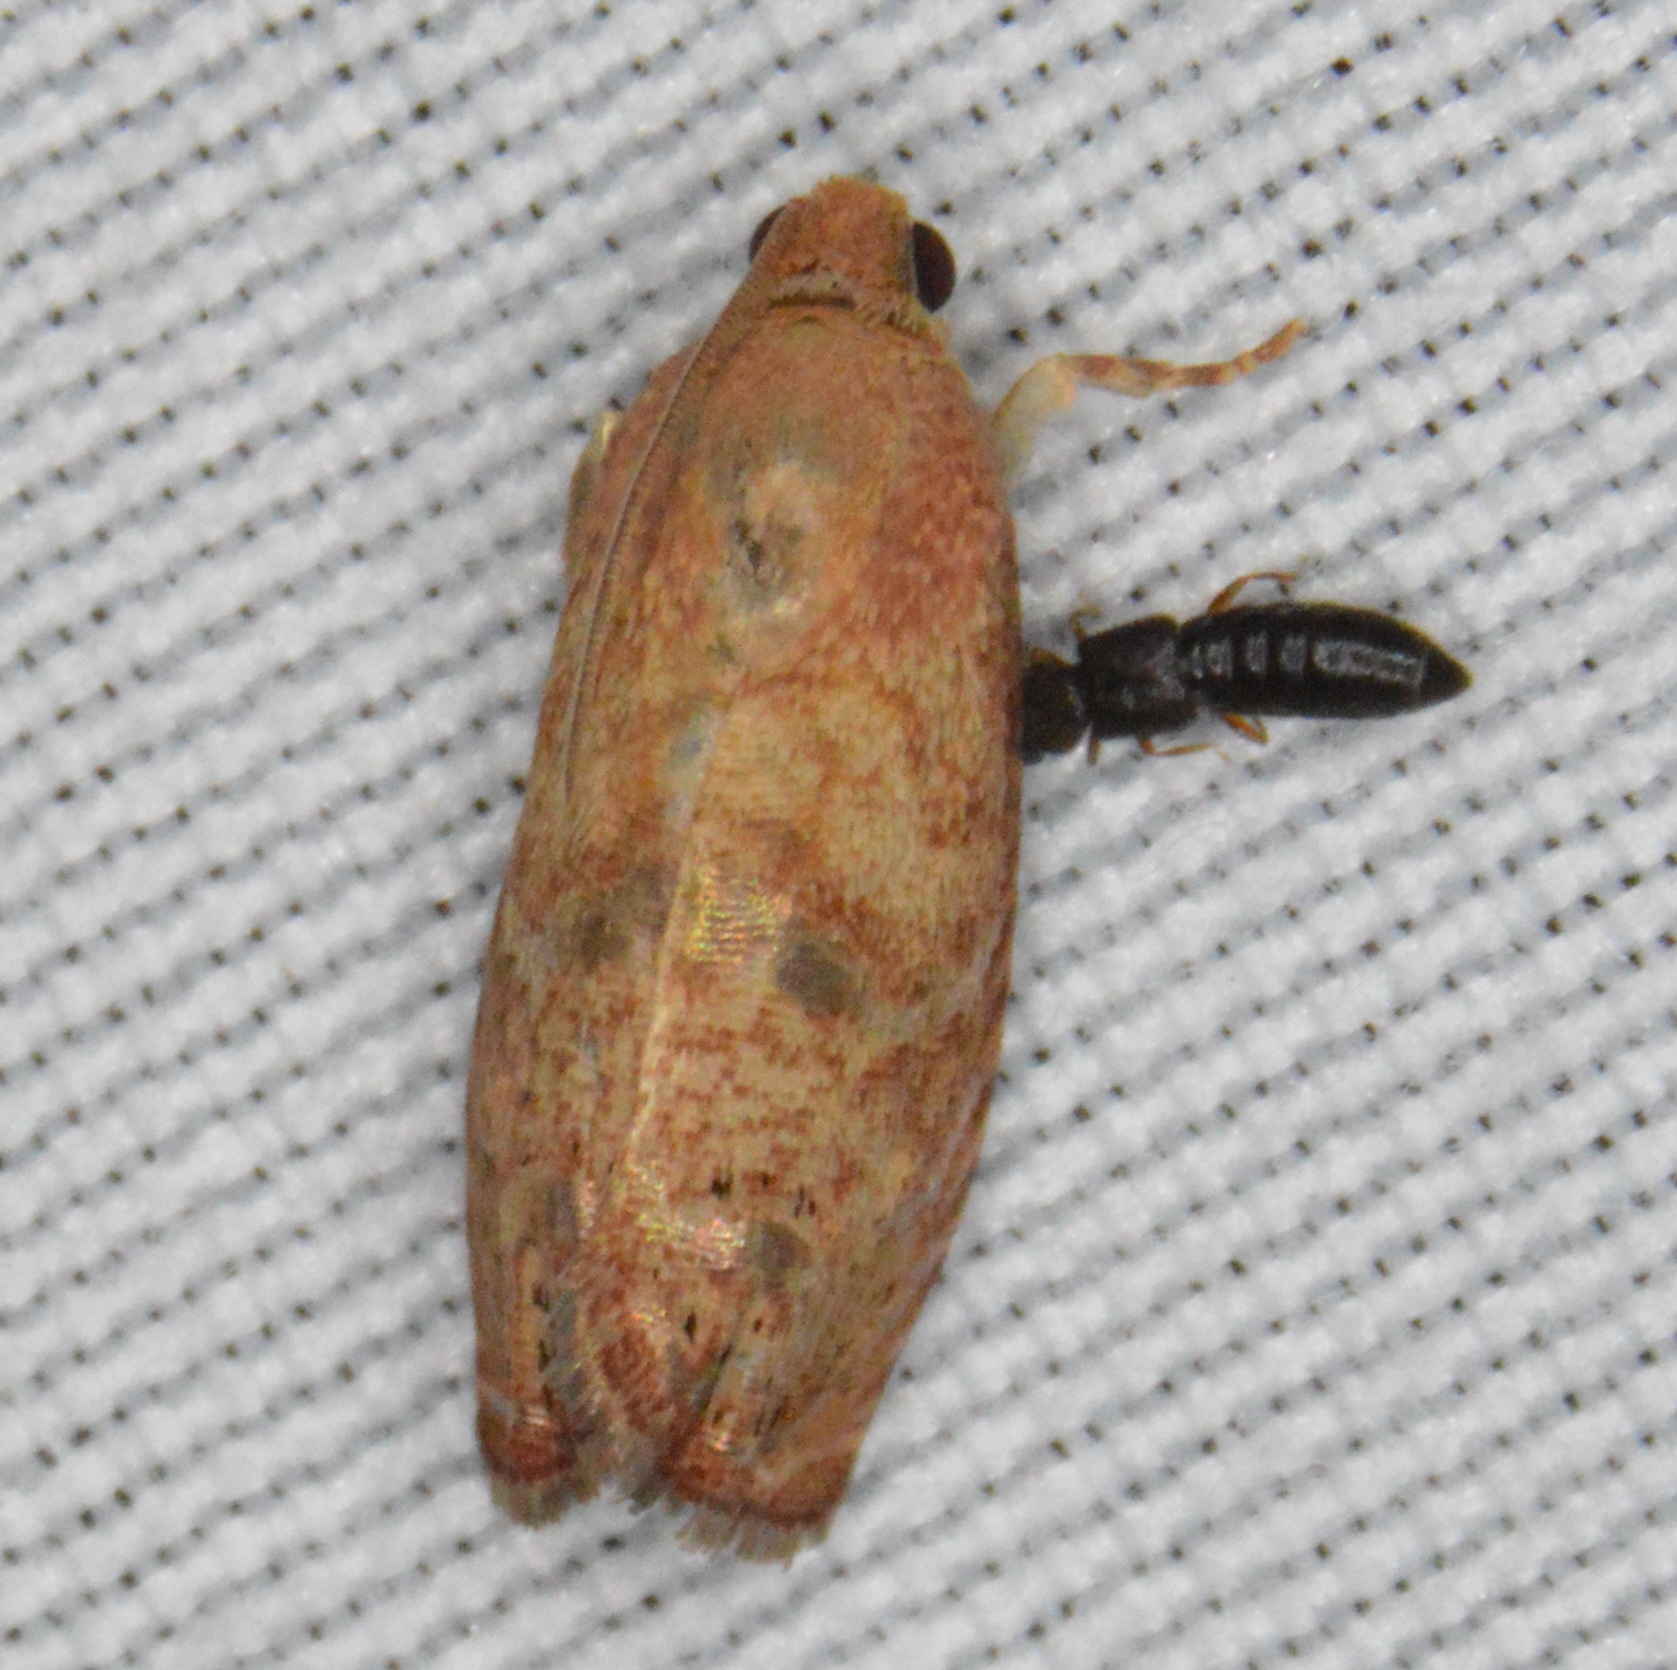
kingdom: Animalia
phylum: Arthropoda
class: Insecta
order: Lepidoptera
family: Tortricidae
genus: Cydia
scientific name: Cydia latiferreana
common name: Filbertworm moth
